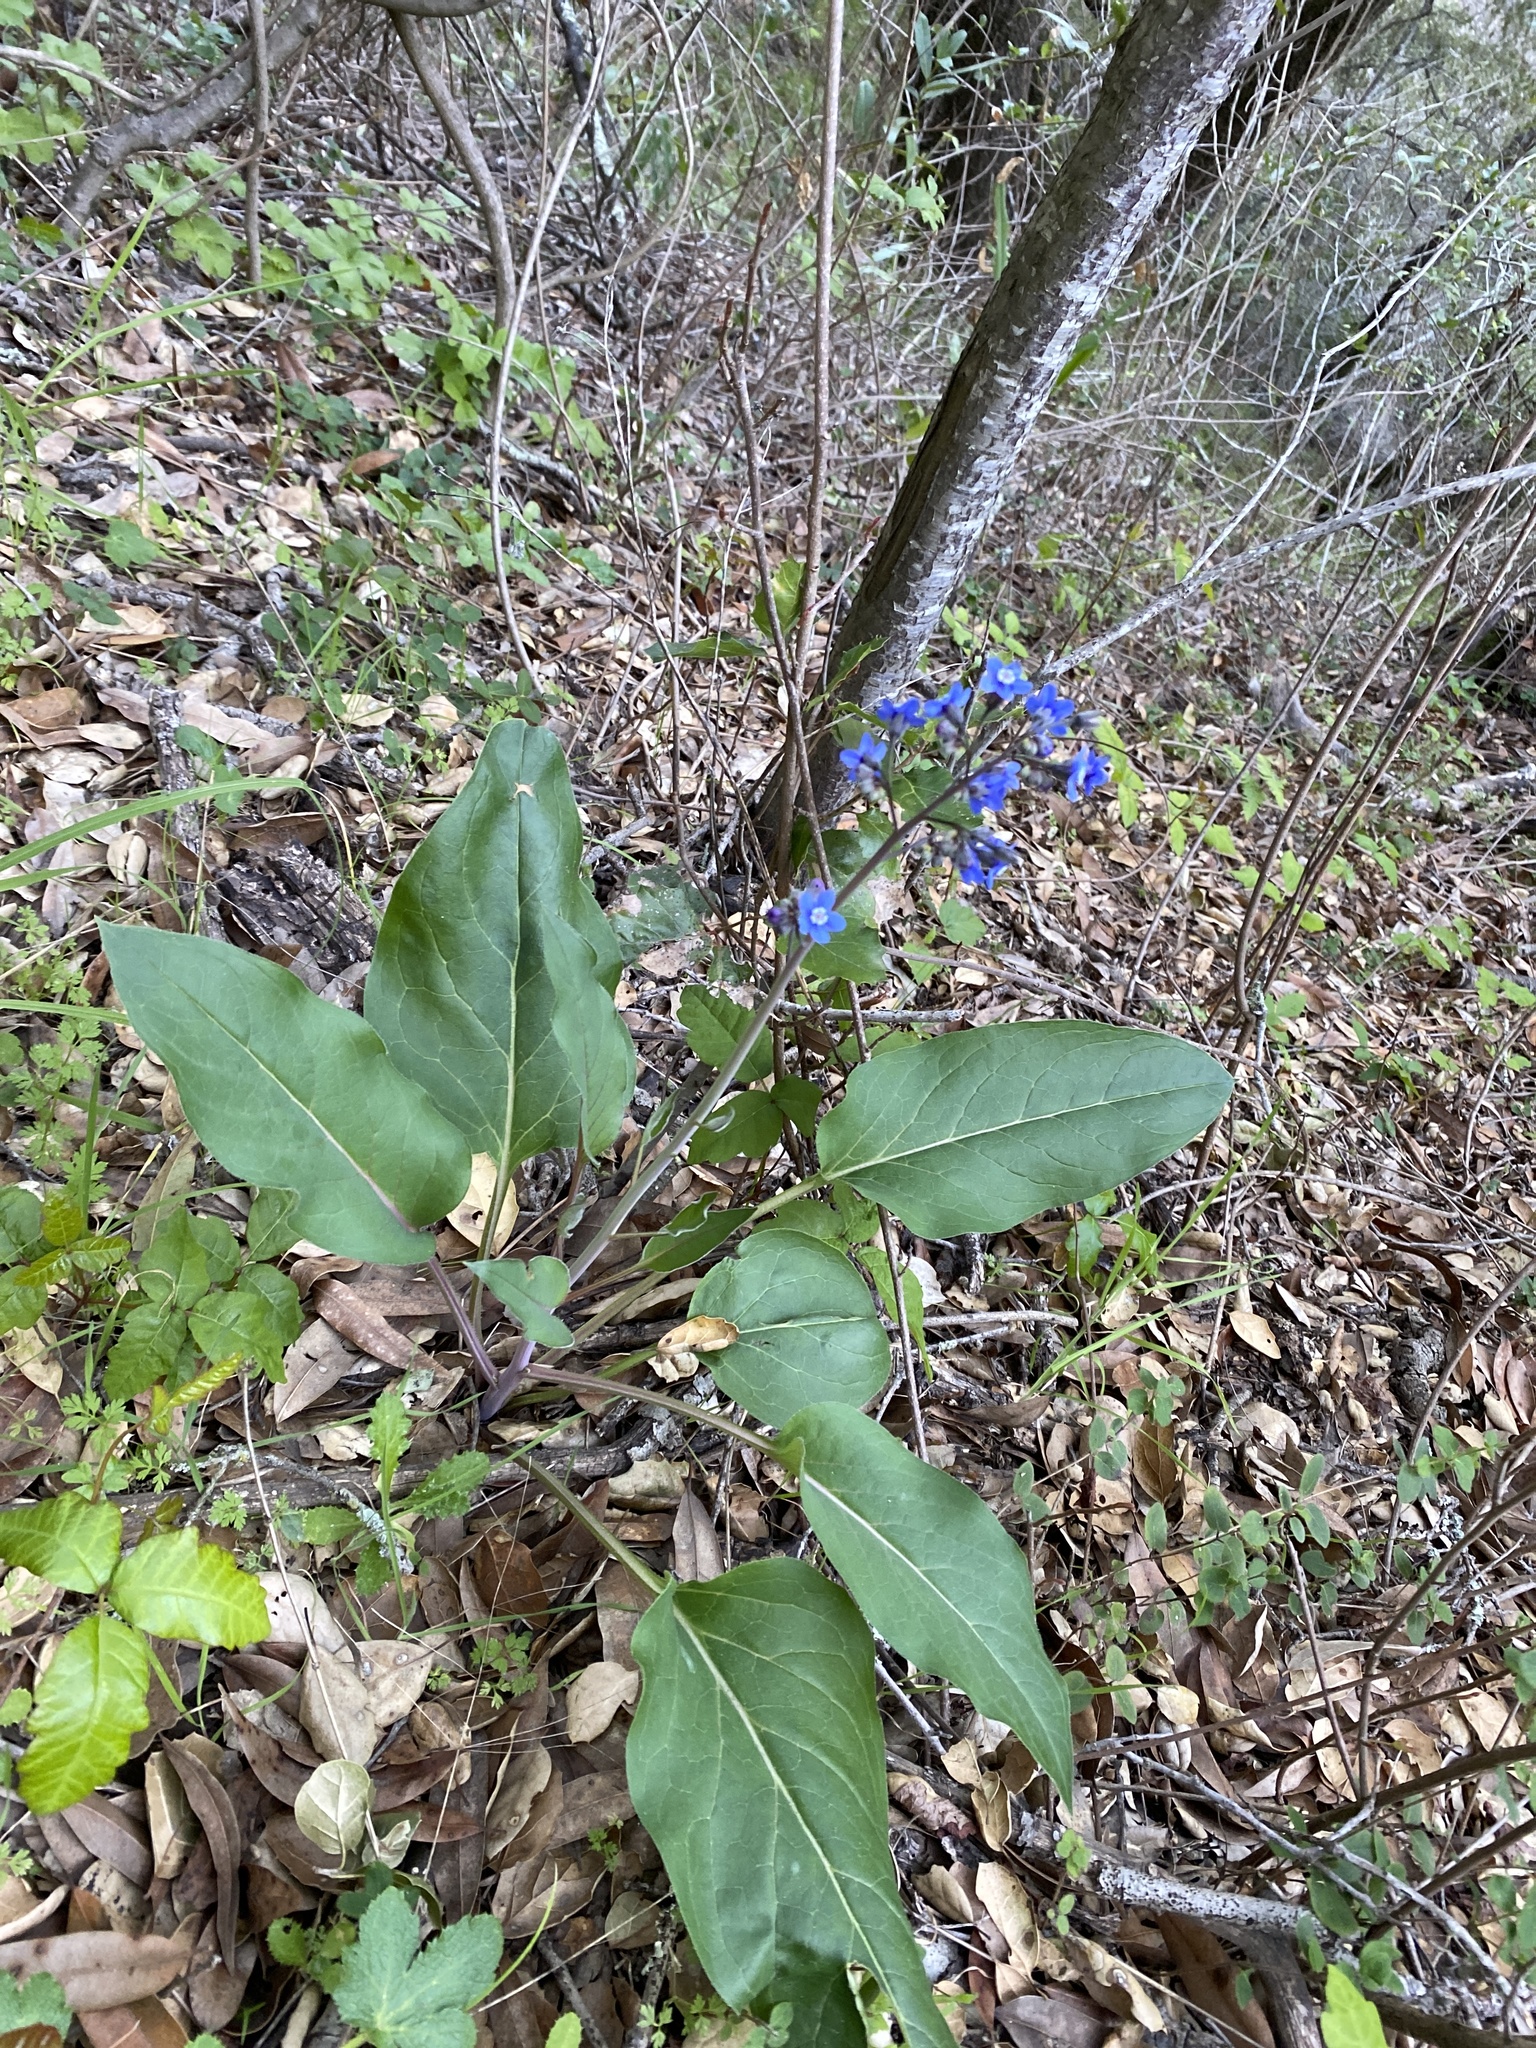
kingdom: Plantae
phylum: Tracheophyta
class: Magnoliopsida
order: Boraginales
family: Boraginaceae
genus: Adelinia
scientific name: Adelinia grande
